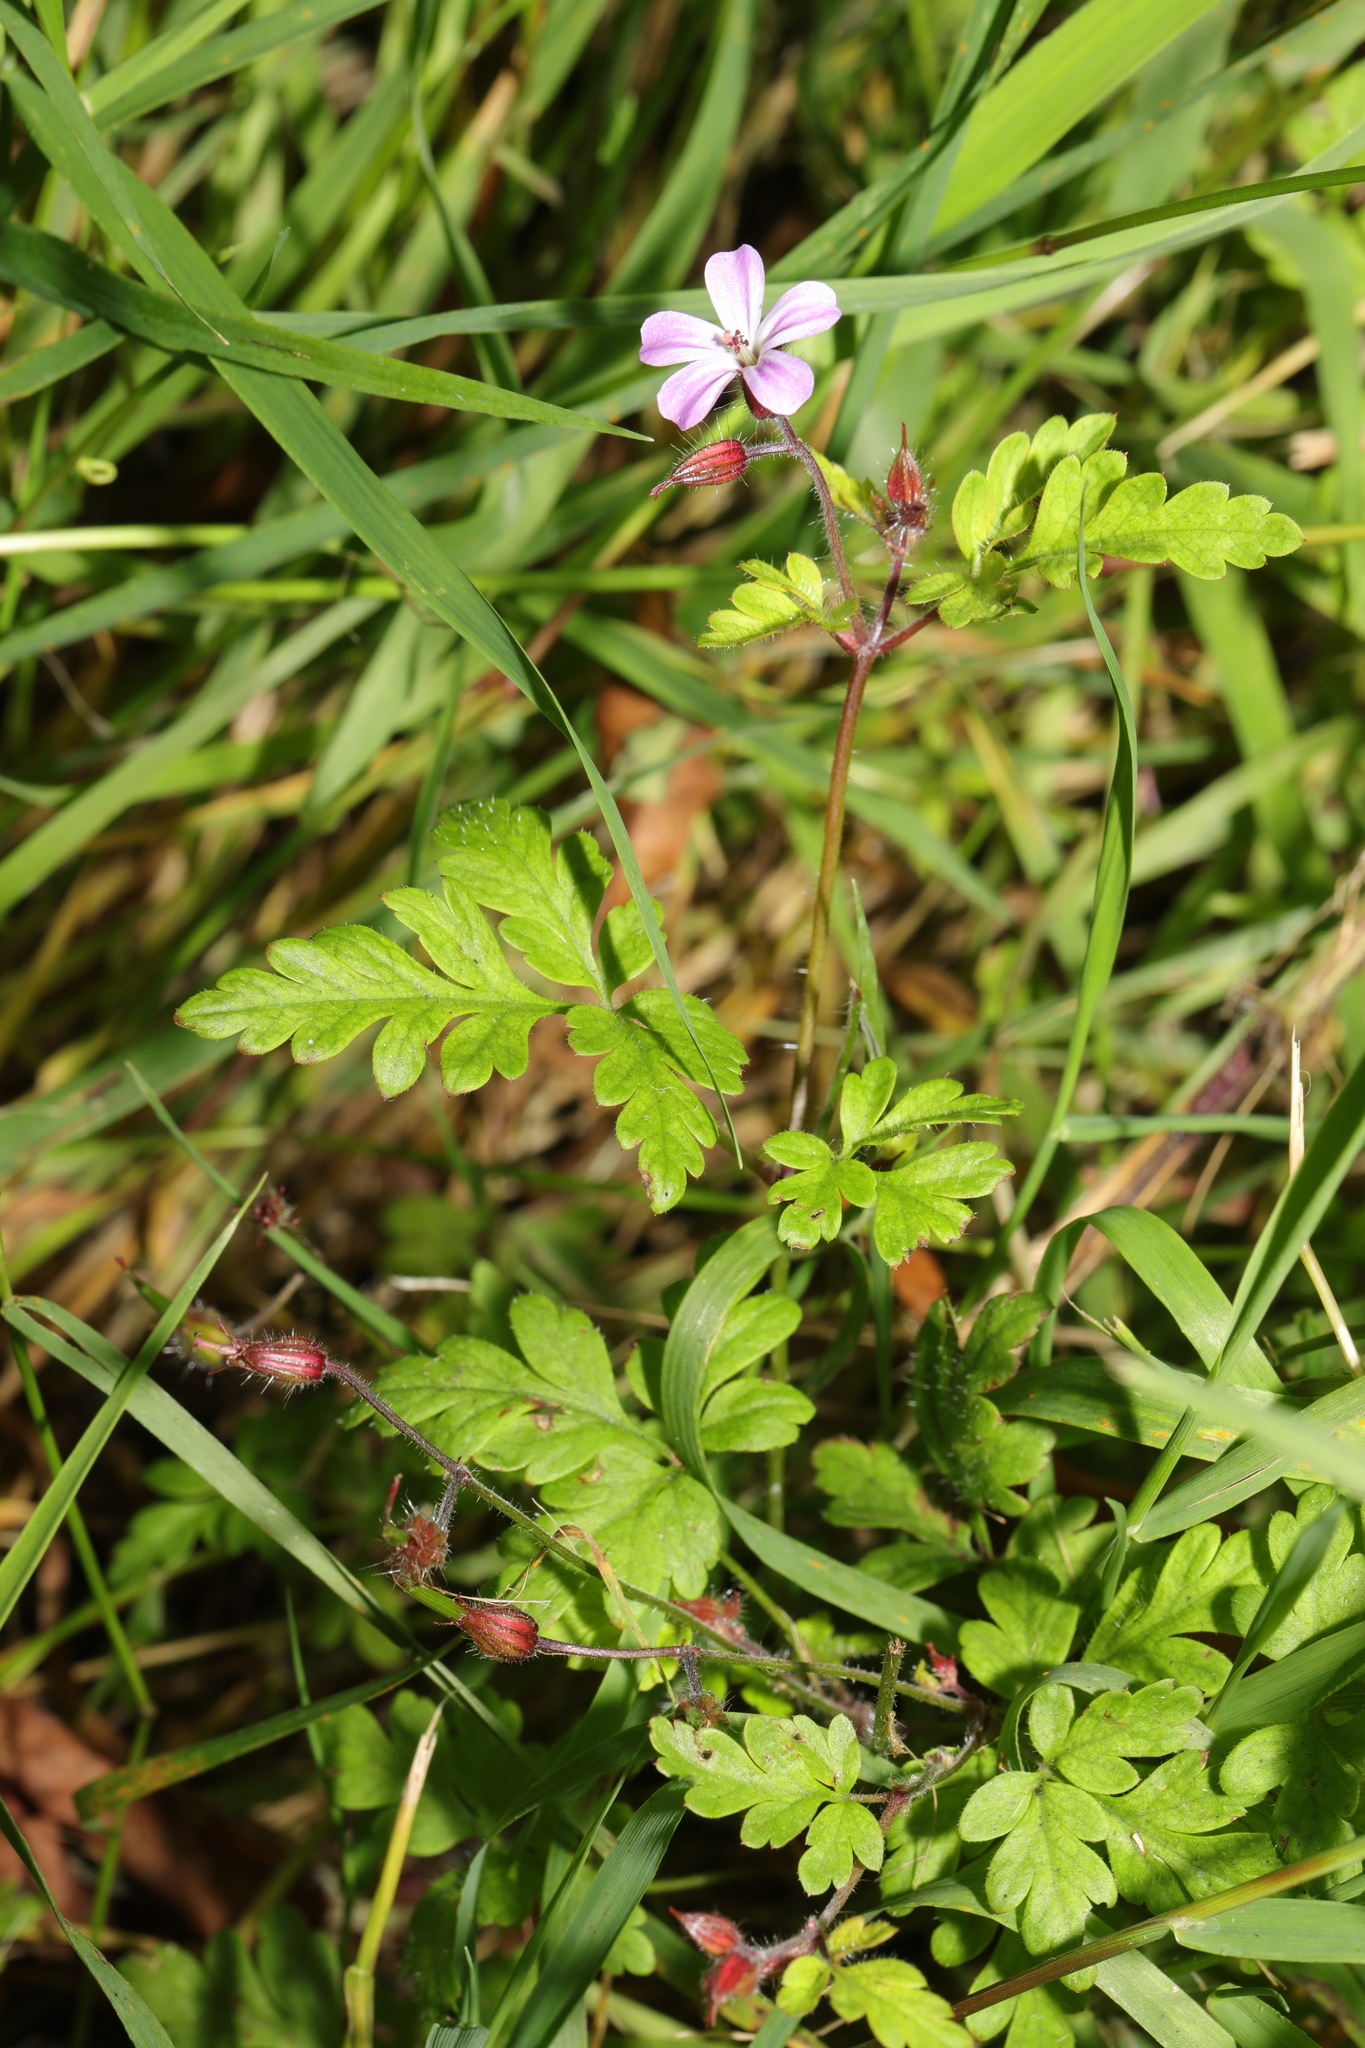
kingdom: Plantae
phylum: Tracheophyta
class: Magnoliopsida
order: Geraniales
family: Geraniaceae
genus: Geranium
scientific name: Geranium robertianum
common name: Herb-robert
